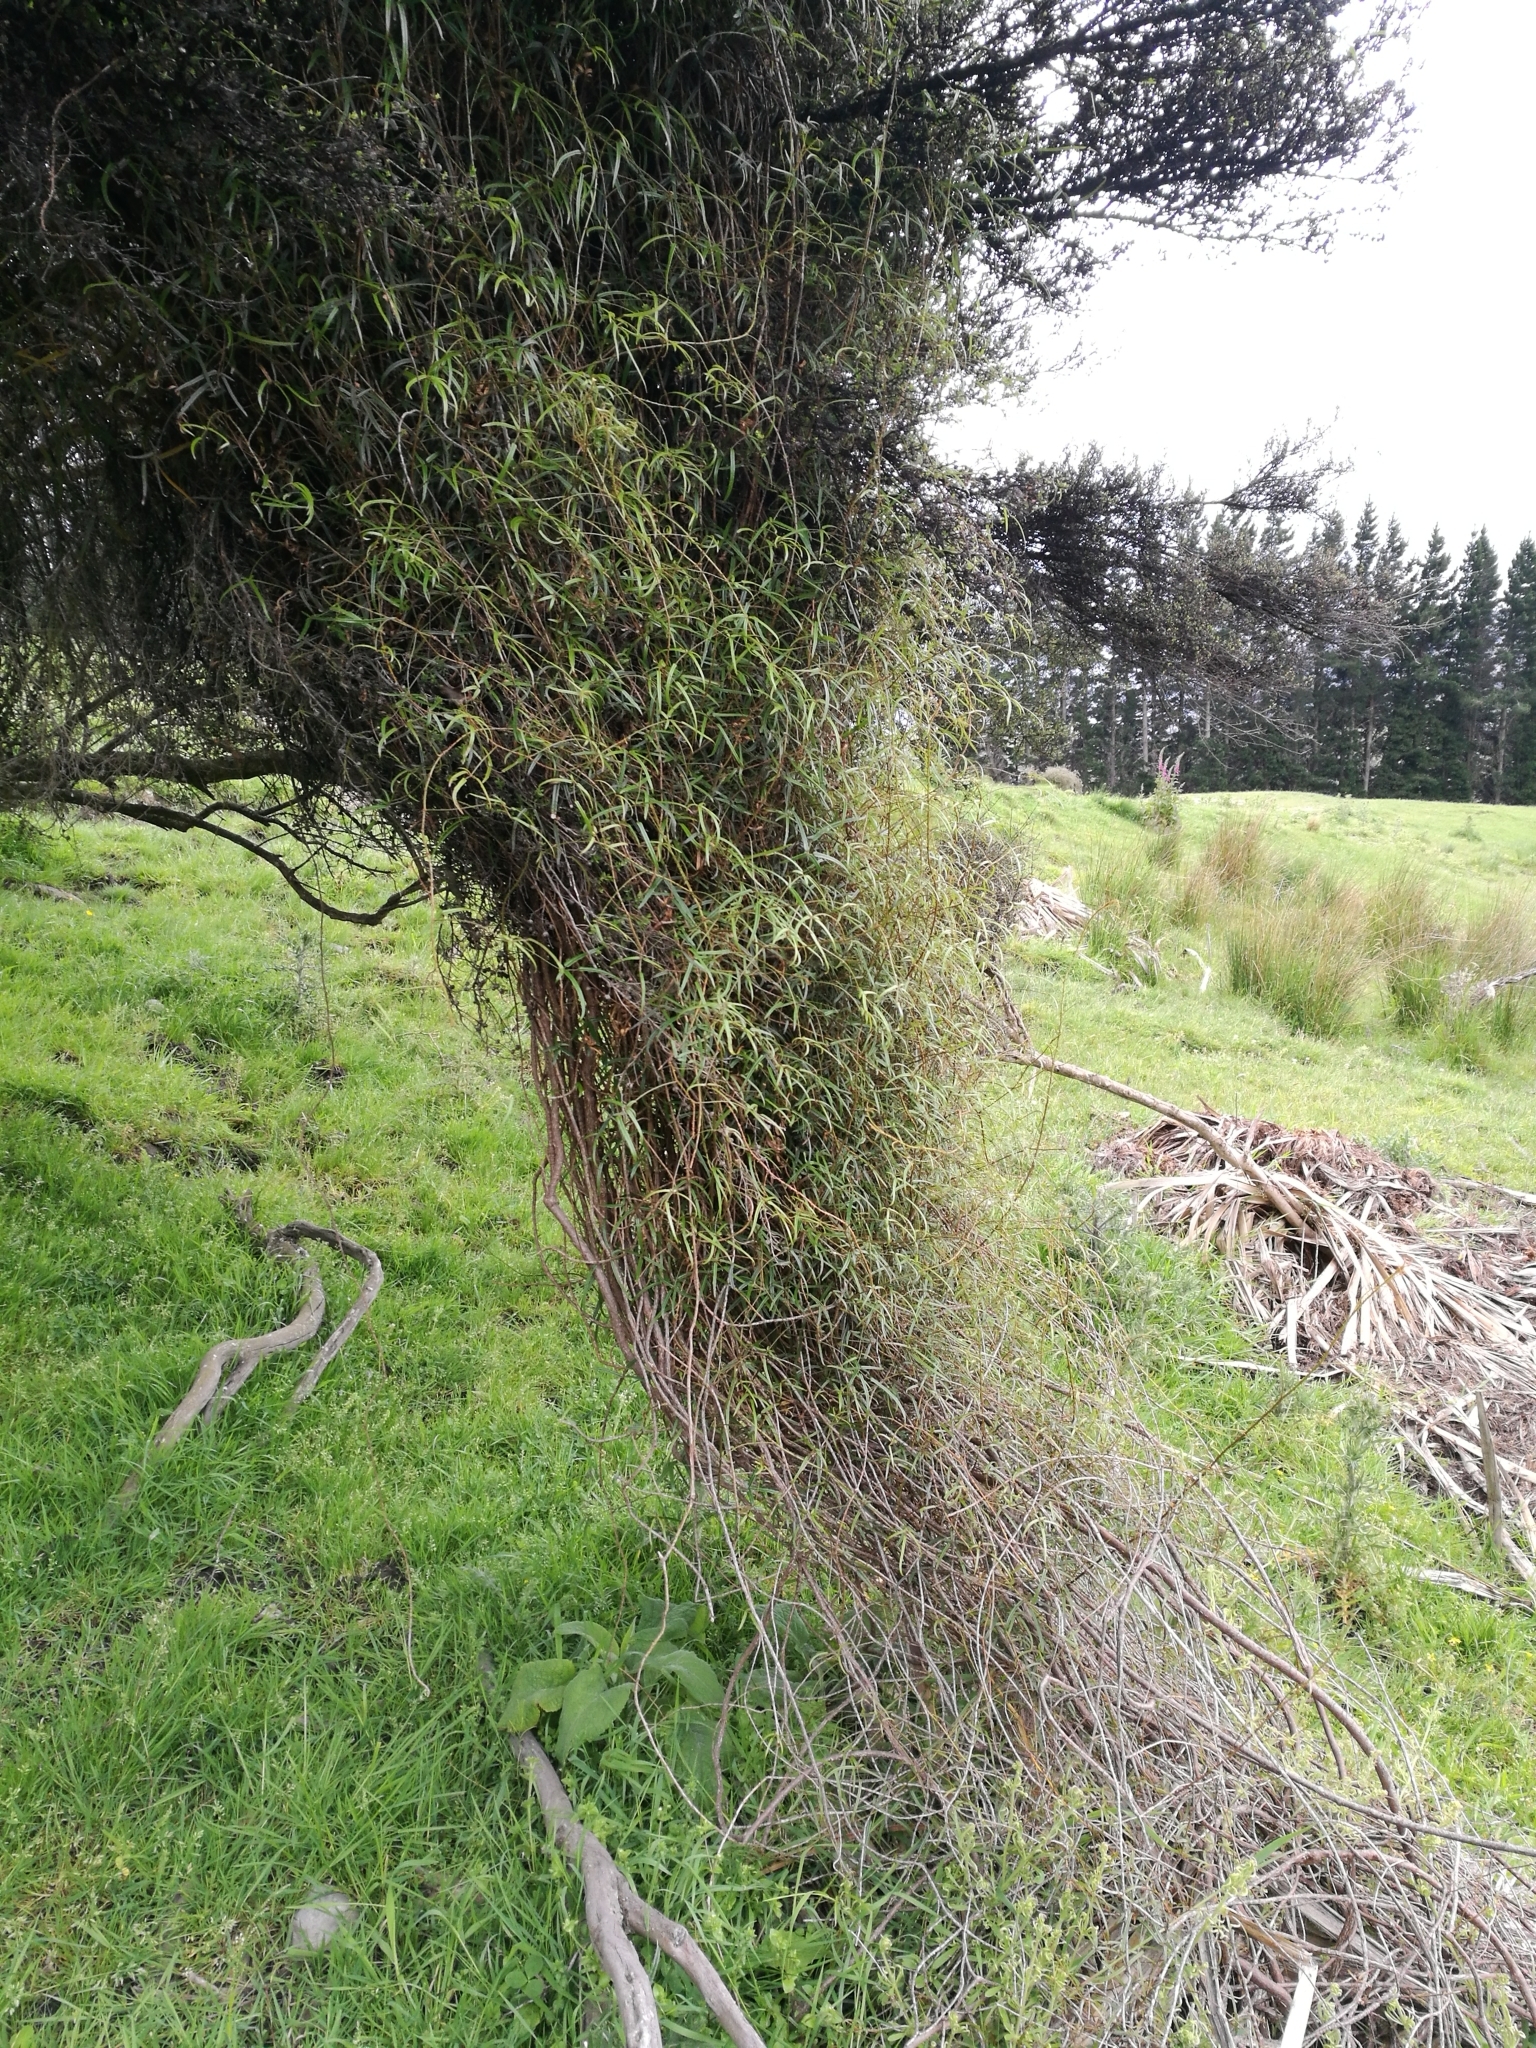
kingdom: Plantae
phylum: Tracheophyta
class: Magnoliopsida
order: Rosales
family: Rosaceae
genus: Rubus
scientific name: Rubus schmidelioides
